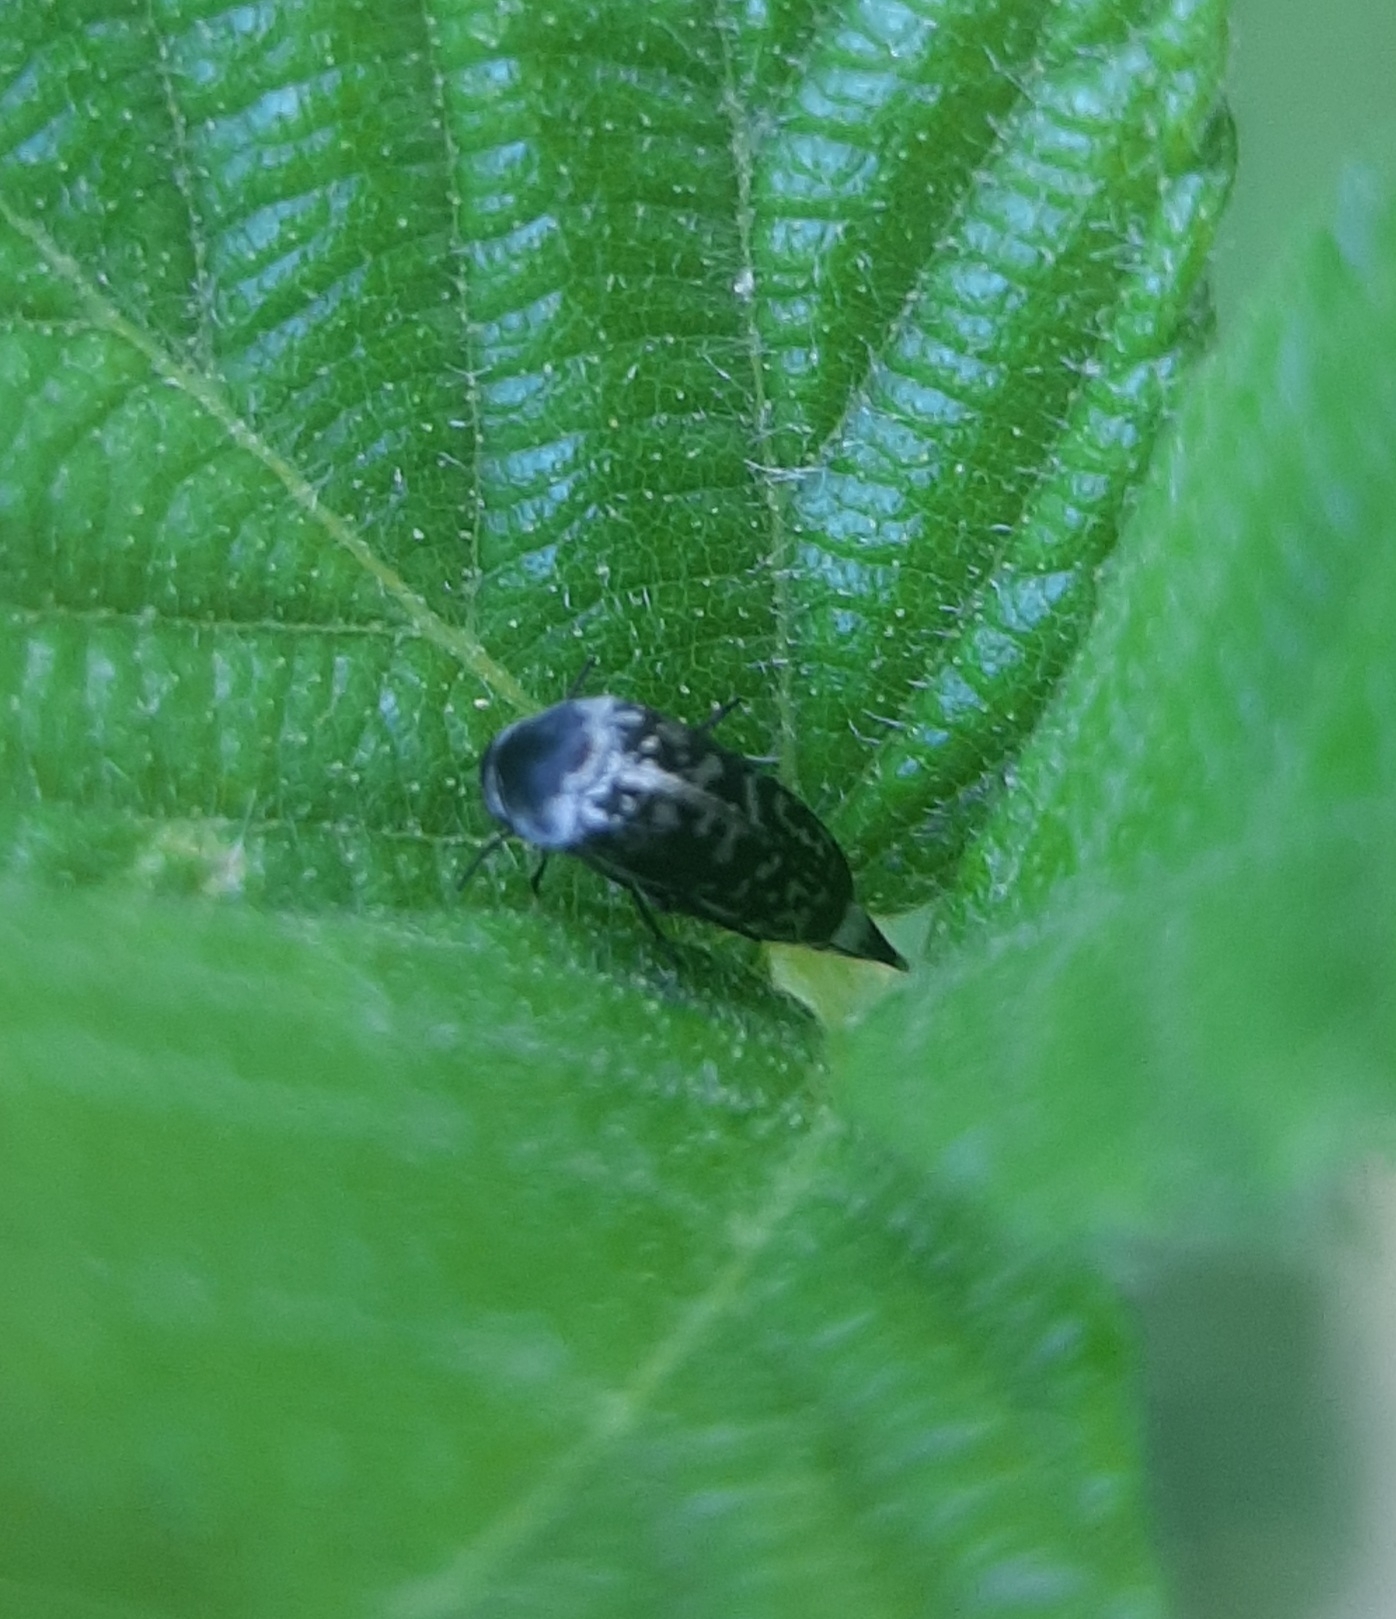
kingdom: Animalia
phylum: Arthropoda
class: Insecta
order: Coleoptera
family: Mordellidae
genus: Mordella
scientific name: Mordella marginata
